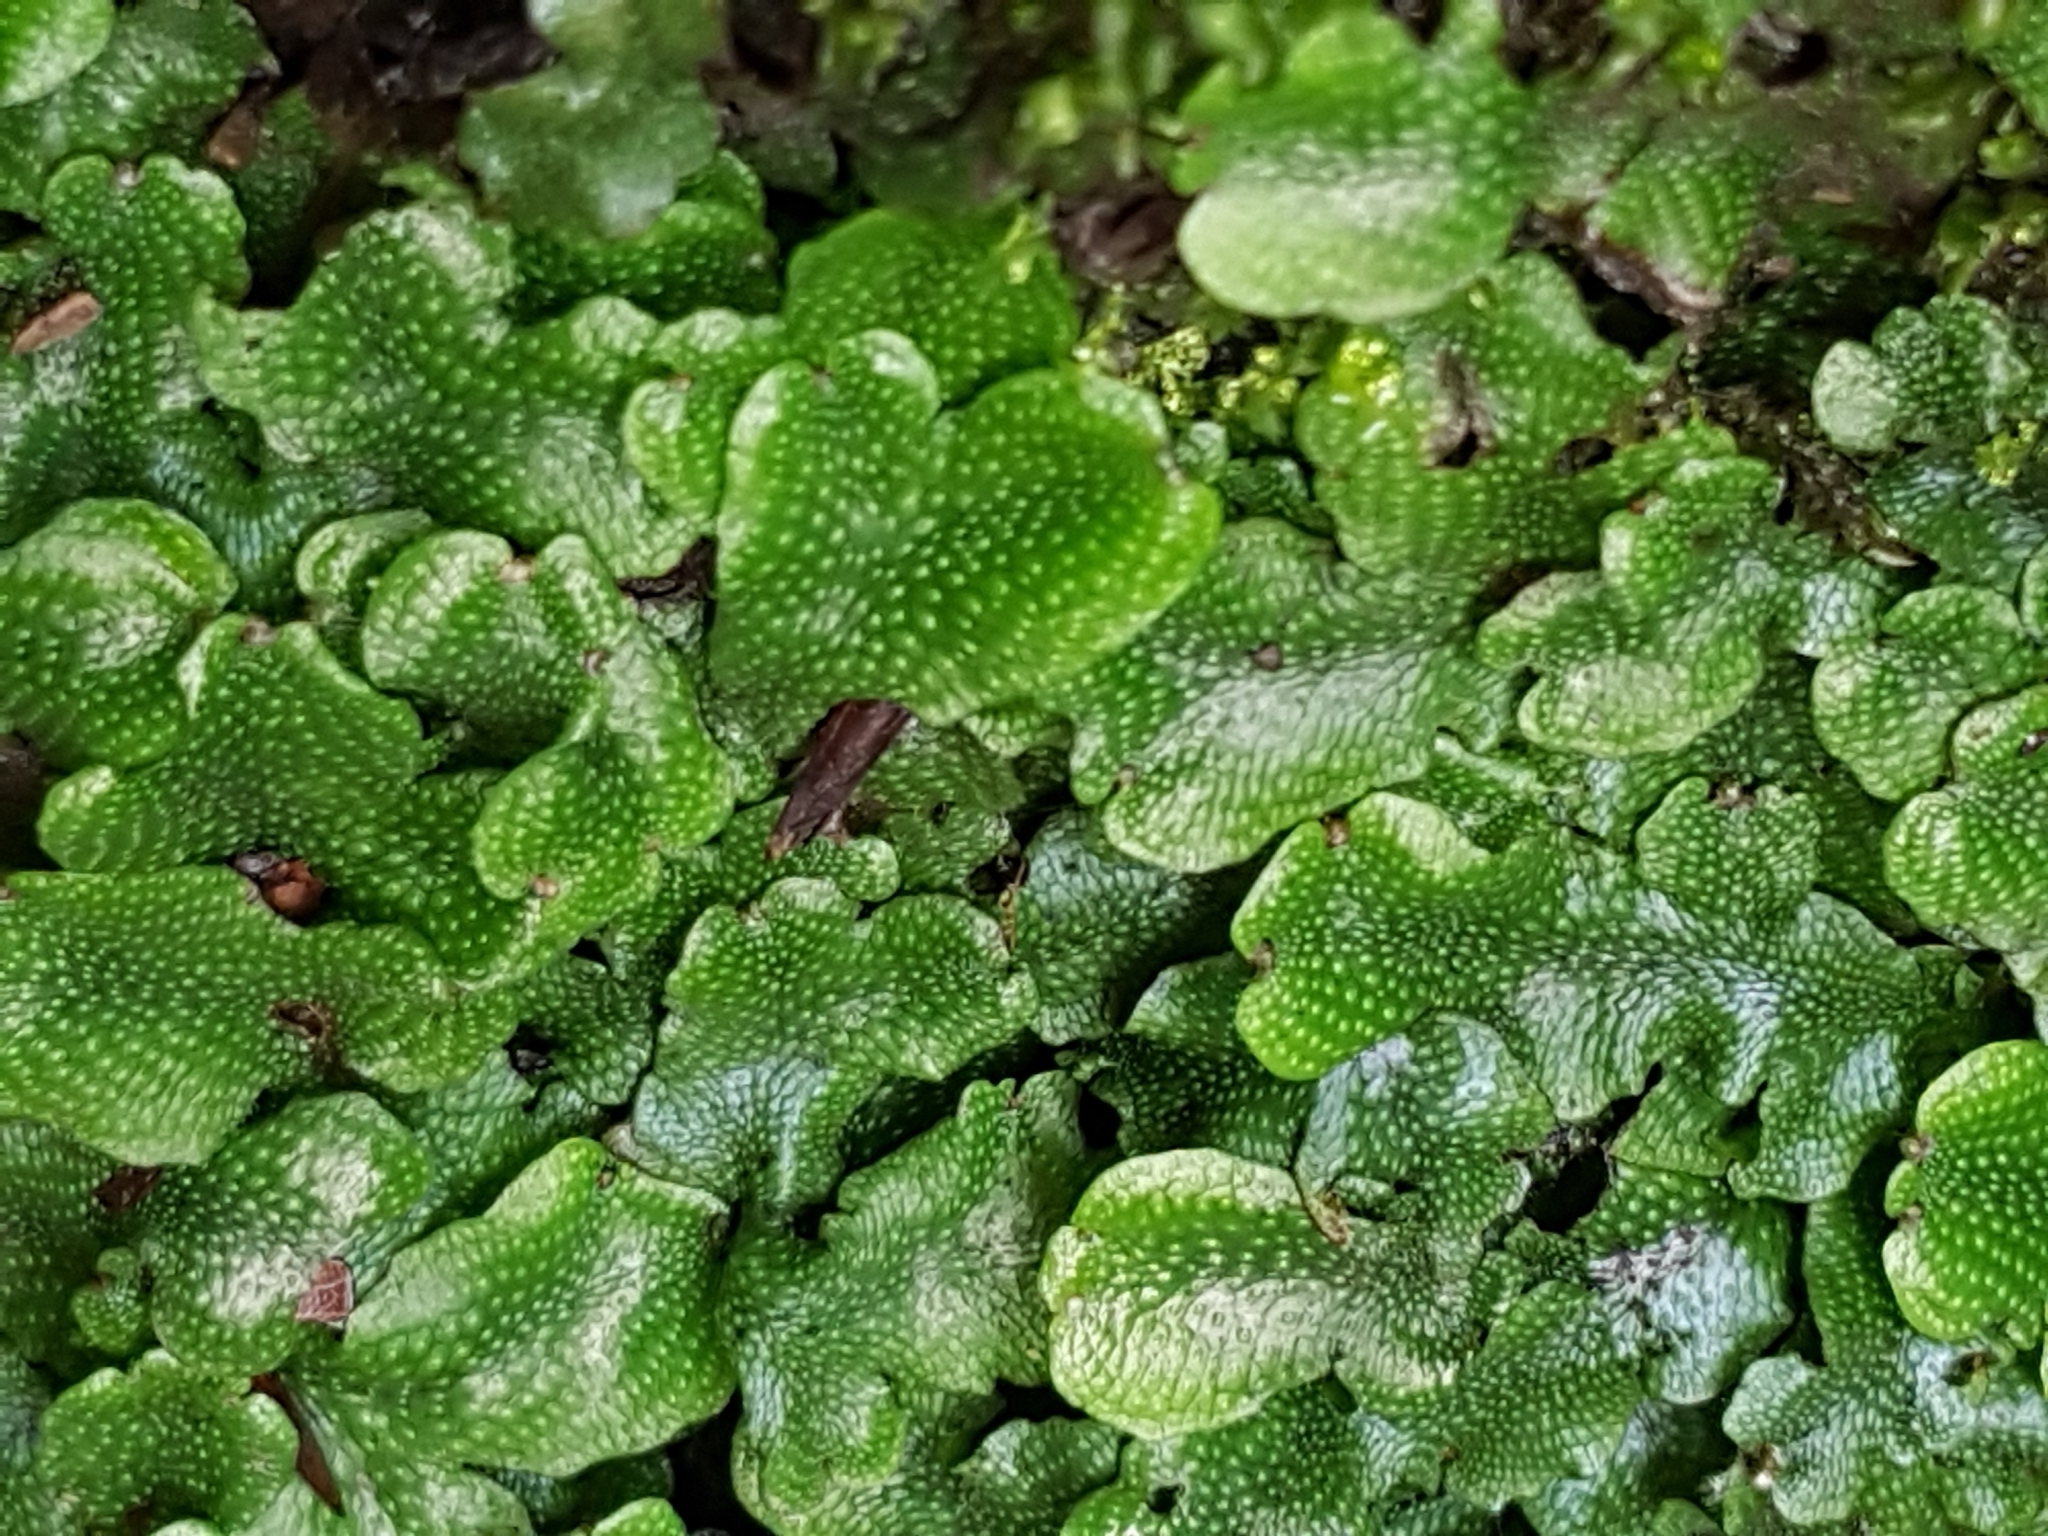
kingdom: Plantae
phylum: Marchantiophyta
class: Marchantiopsida
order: Marchantiales
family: Conocephalaceae
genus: Conocephalum
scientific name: Conocephalum conicum
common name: Great scented liverwort
